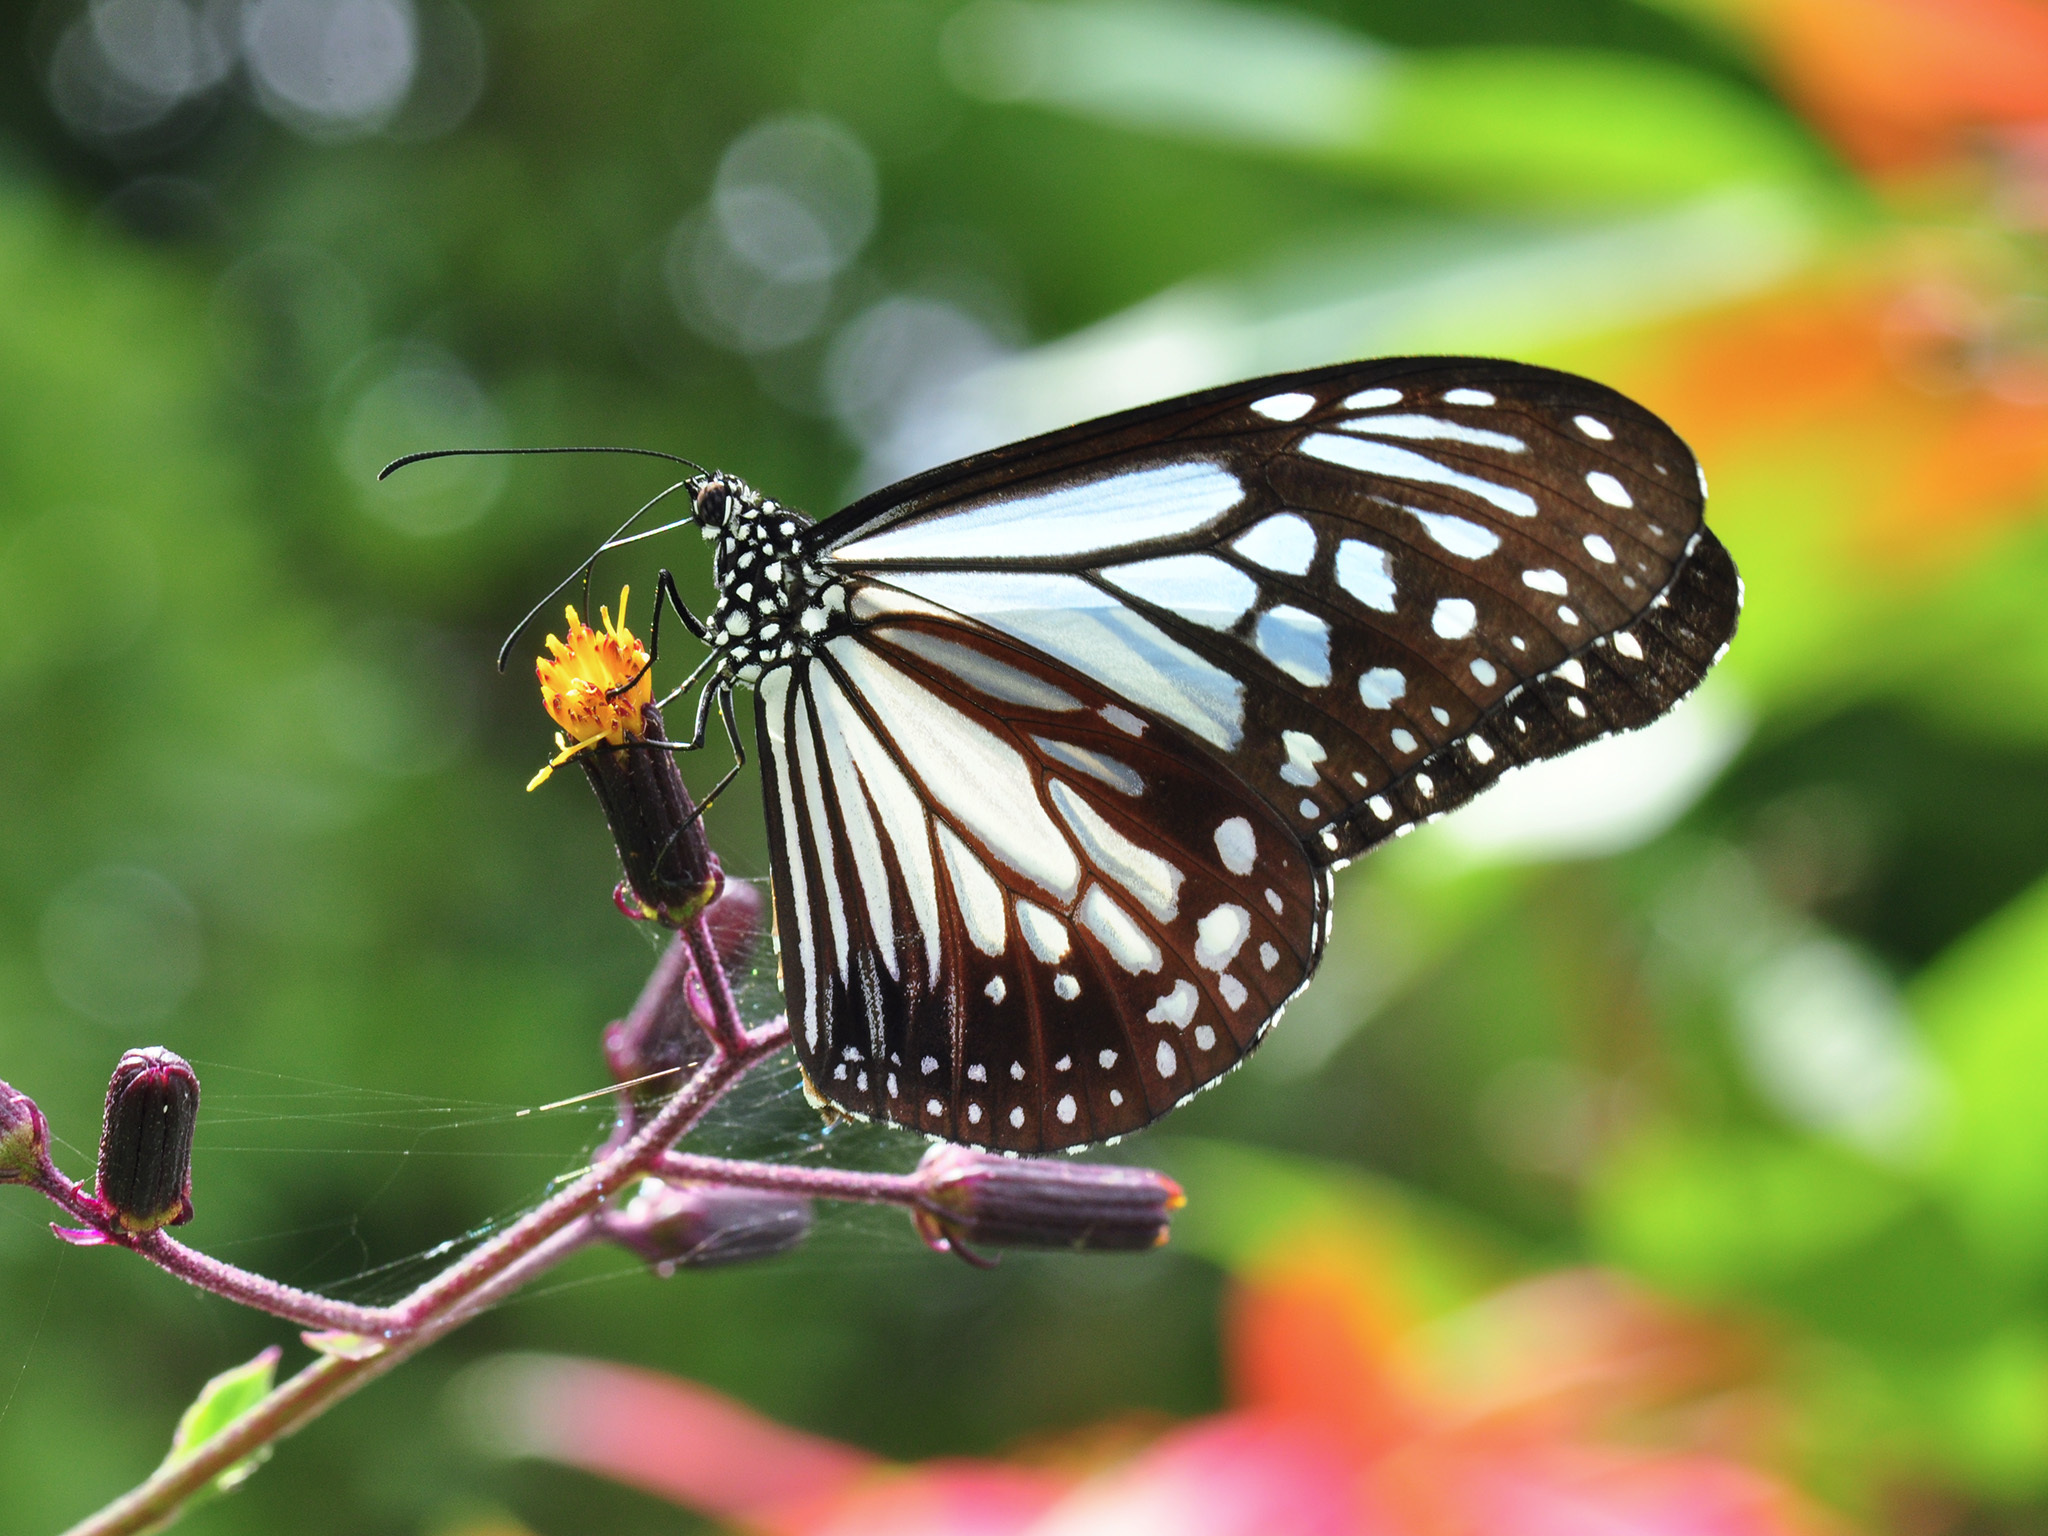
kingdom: Animalia
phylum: Arthropoda
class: Insecta
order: Lepidoptera
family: Nymphalidae
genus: Parantica
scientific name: Parantica melaneus
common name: Chocolate tiger
